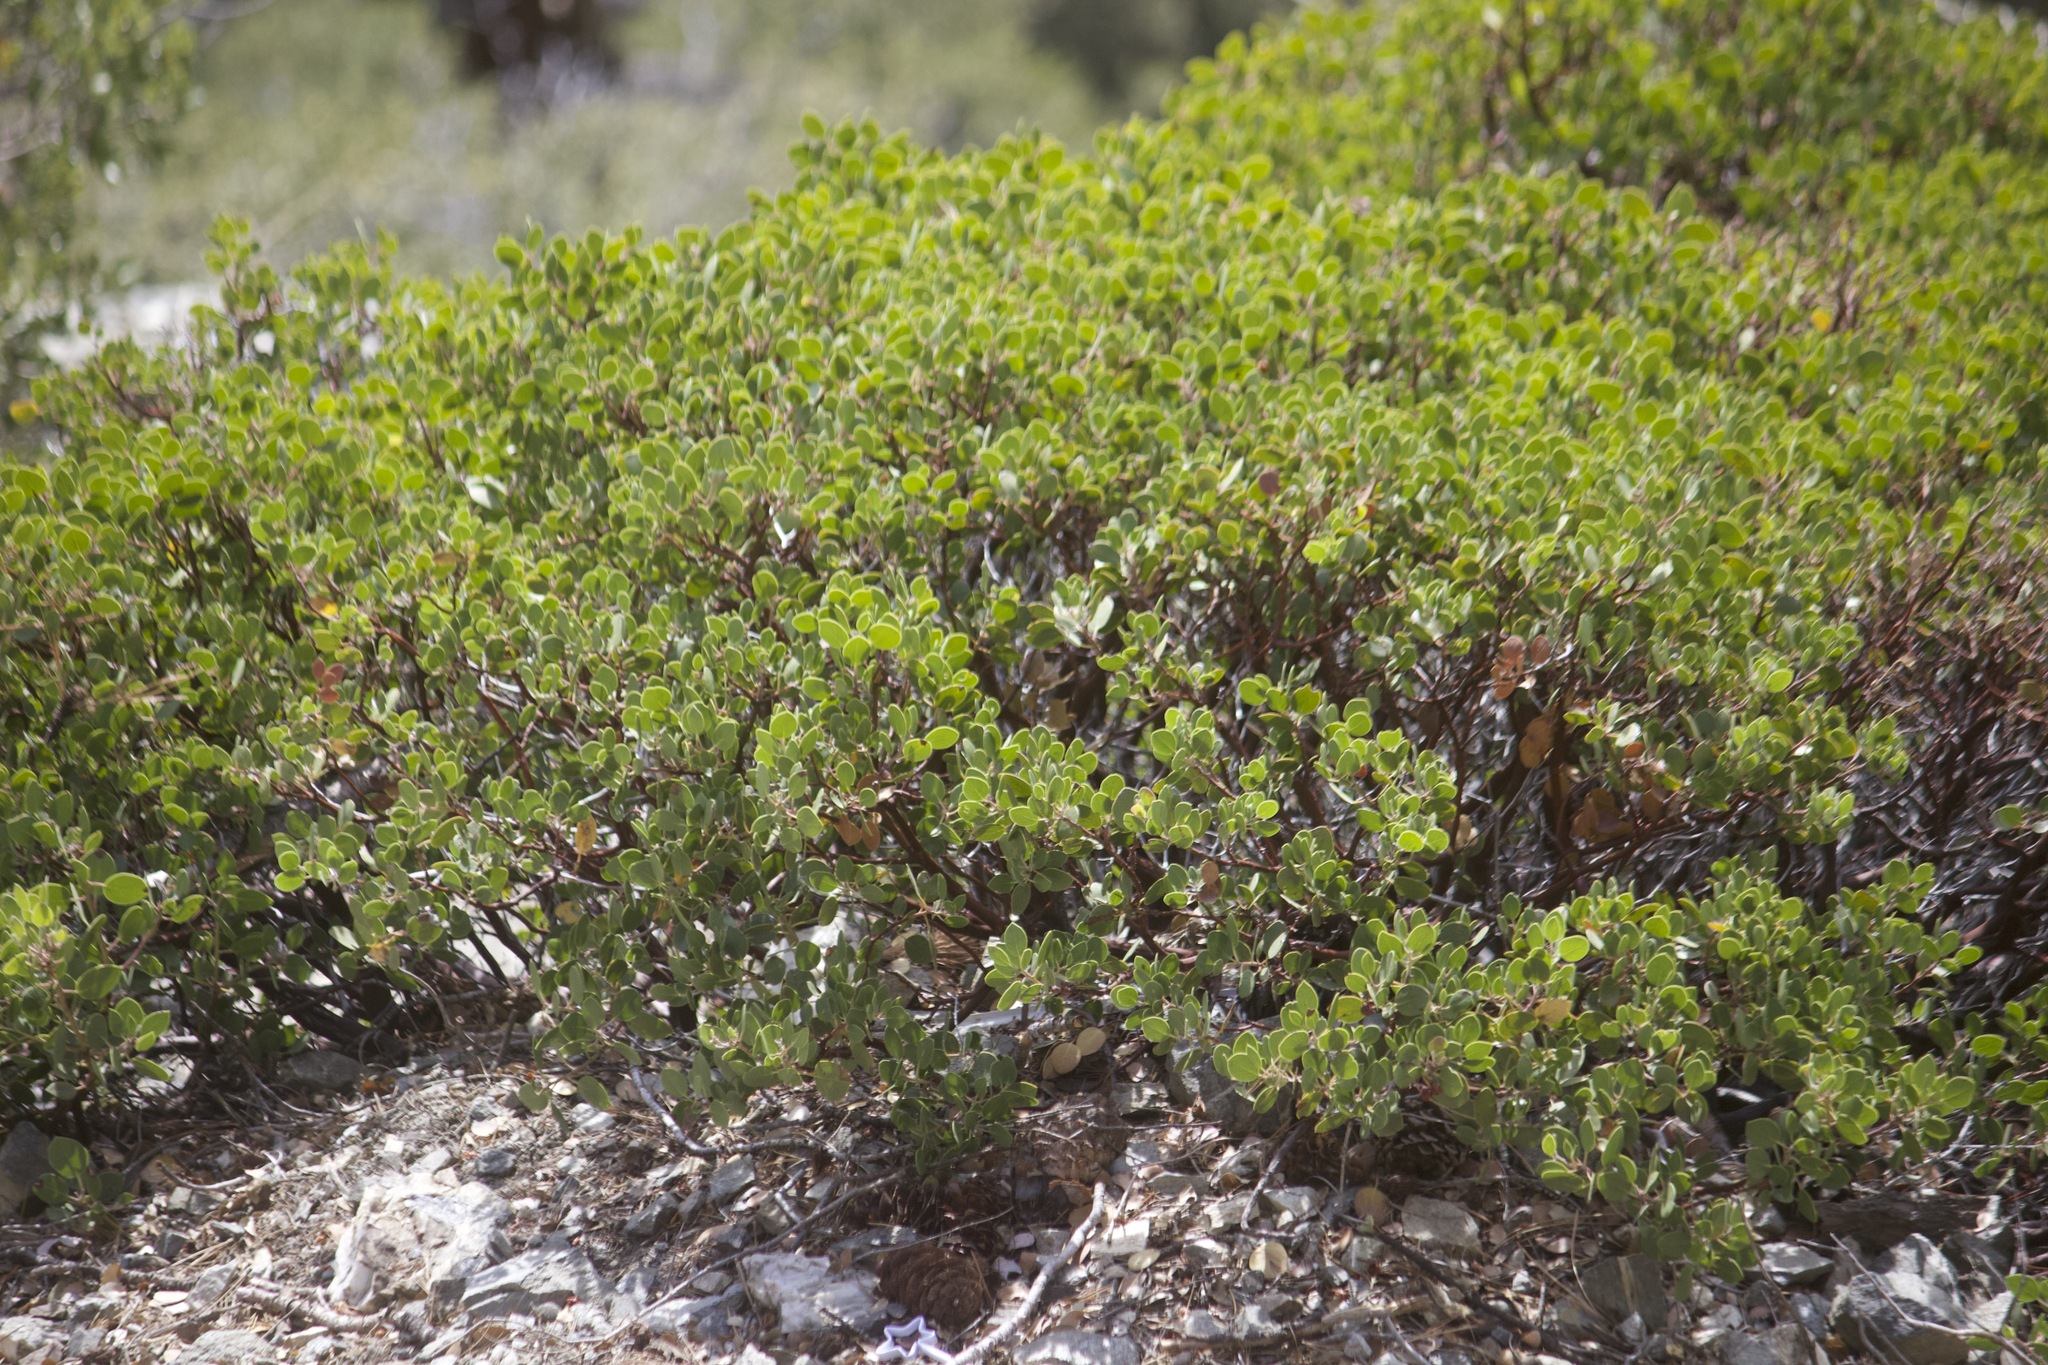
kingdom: Plantae
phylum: Tracheophyta
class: Magnoliopsida
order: Ericales
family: Ericaceae
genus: Arctostaphylos
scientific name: Arctostaphylos parryana
